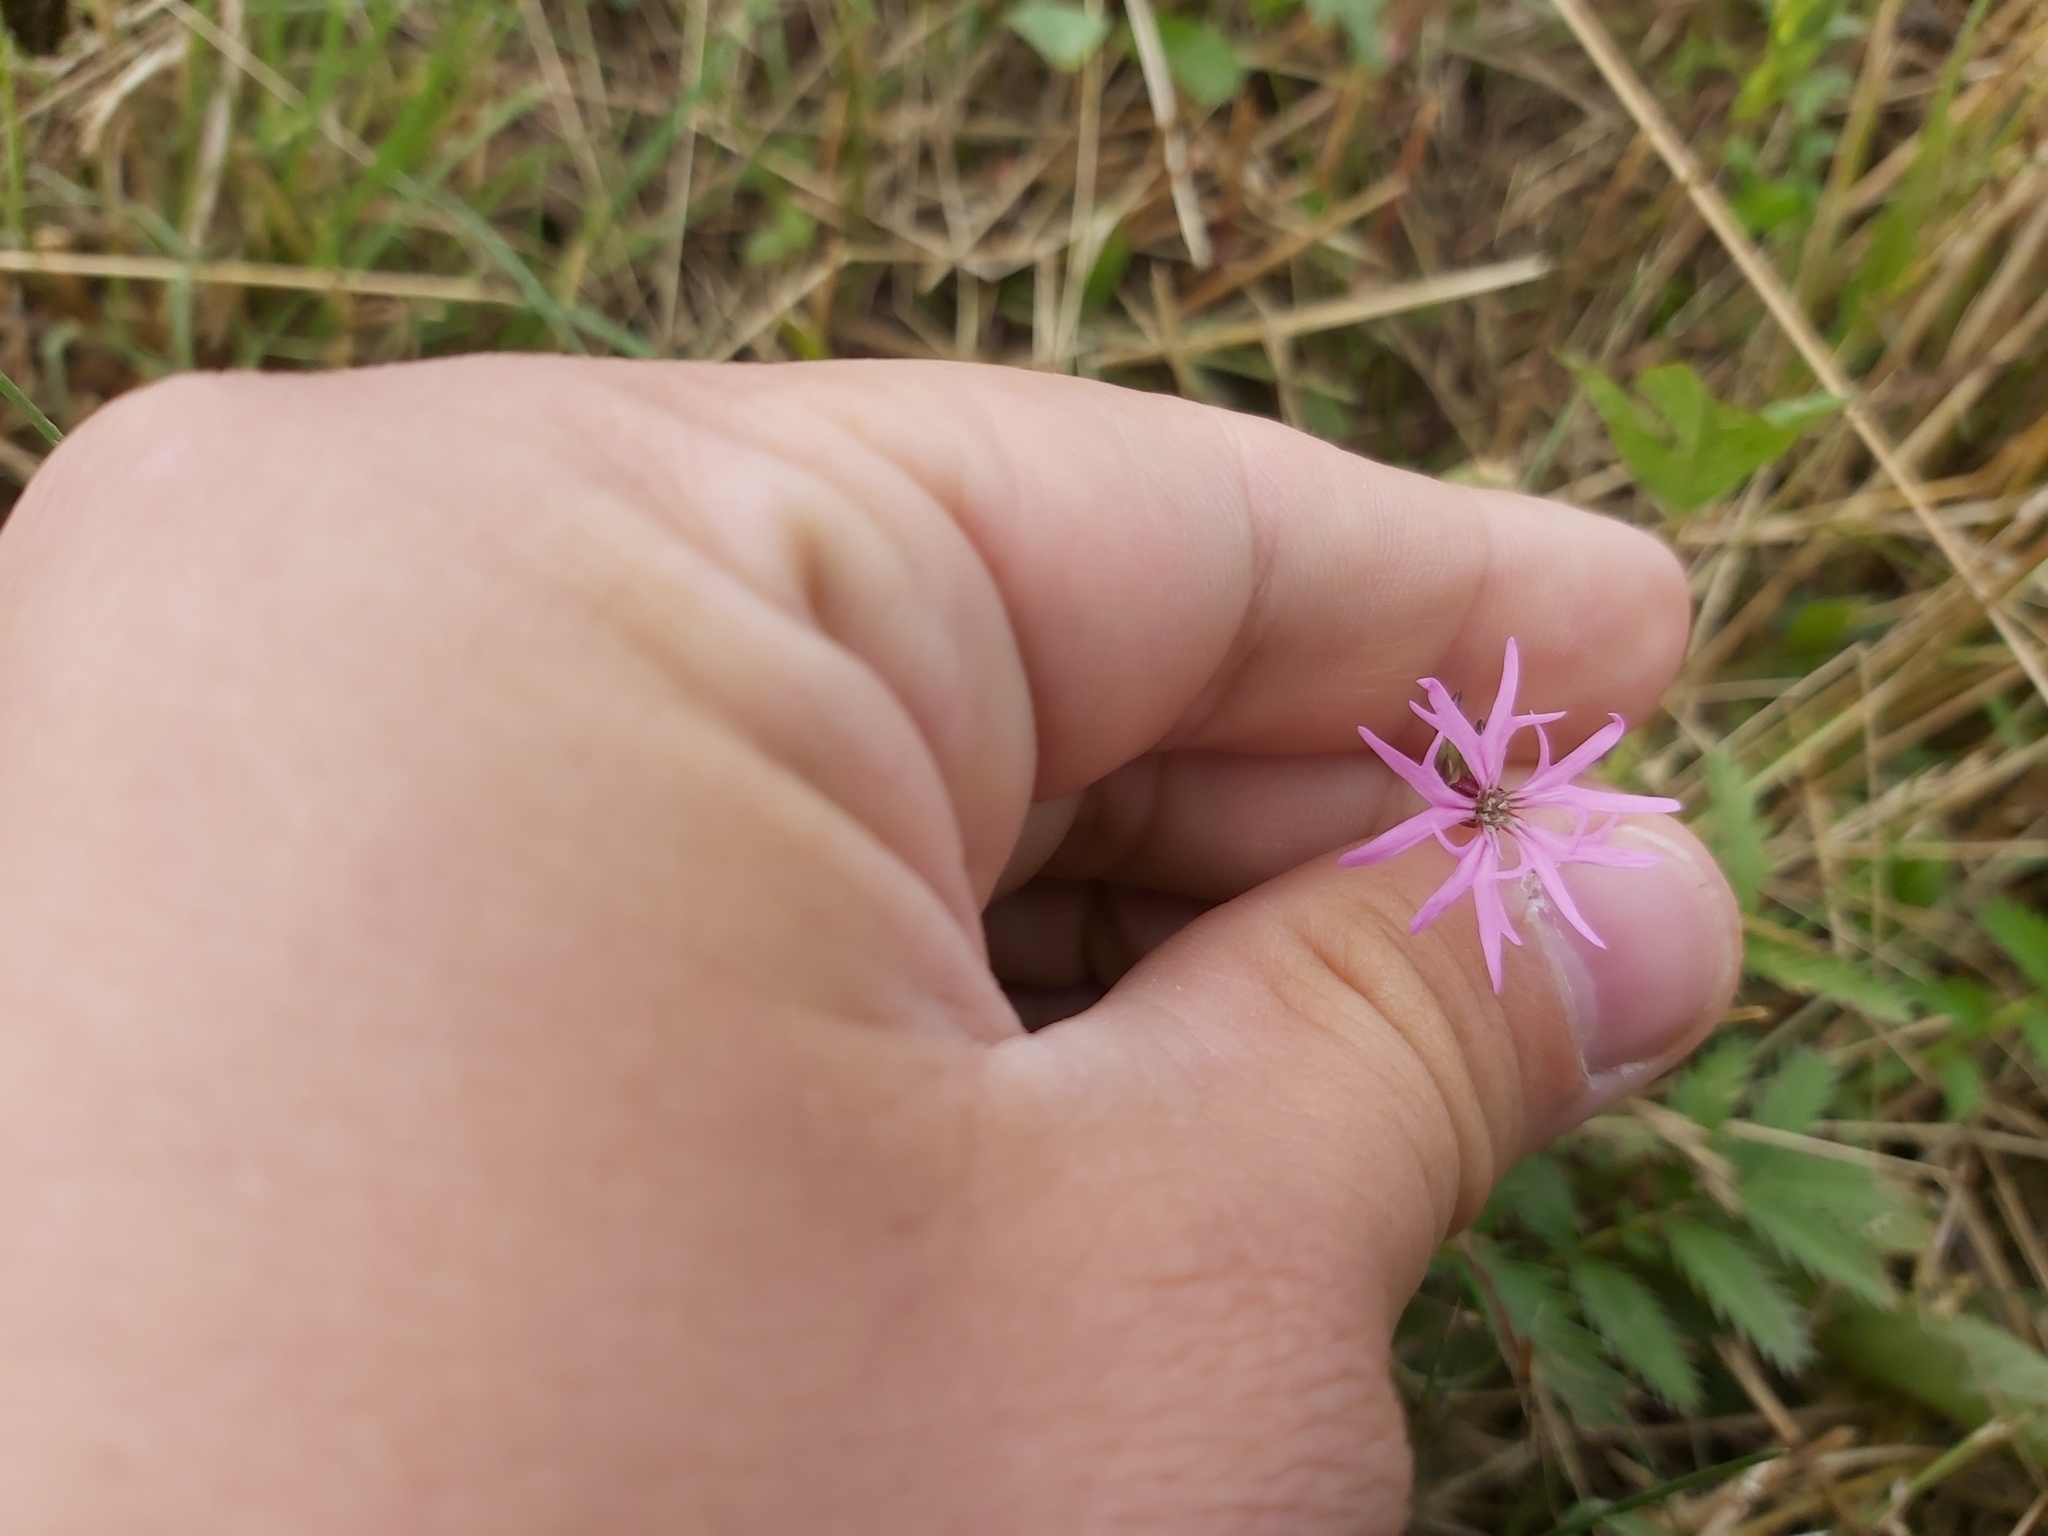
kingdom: Plantae
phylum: Tracheophyta
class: Magnoliopsida
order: Caryophyllales
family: Caryophyllaceae
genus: Silene
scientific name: Silene flos-cuculi
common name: Ragged-robin
